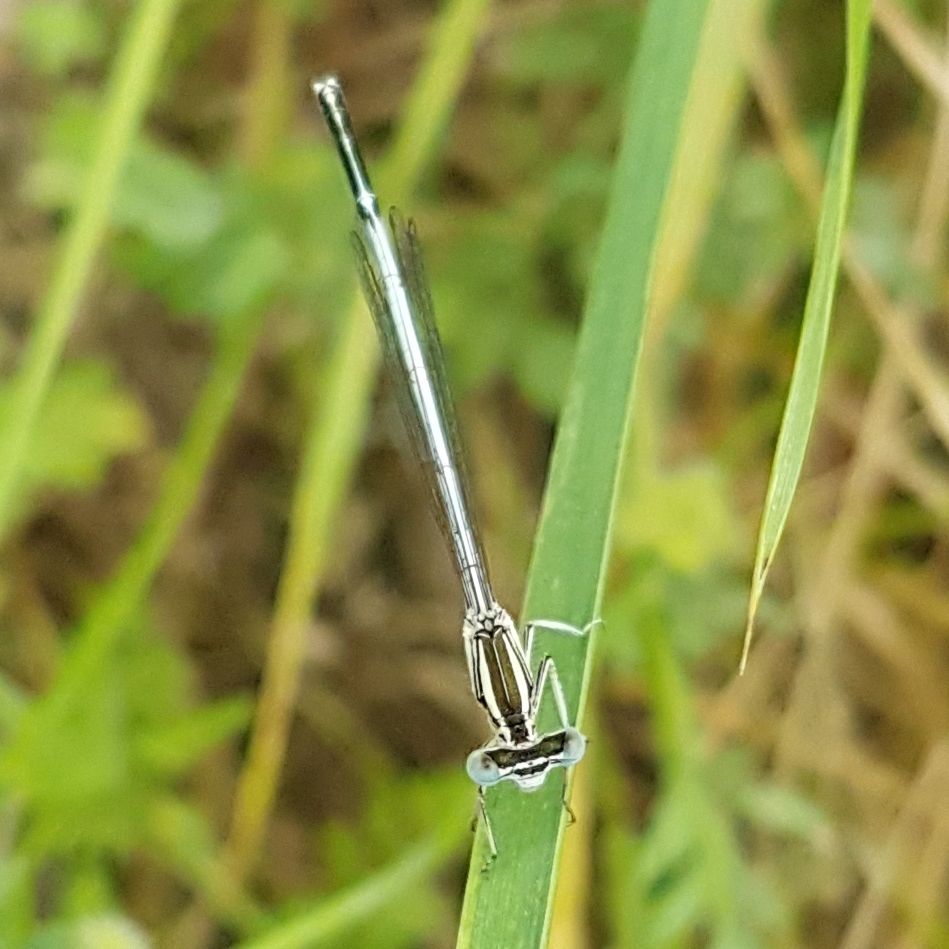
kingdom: Animalia
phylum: Arthropoda
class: Insecta
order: Odonata
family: Platycnemididae
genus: Platycnemis
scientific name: Platycnemis latipes
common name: White featherleg
